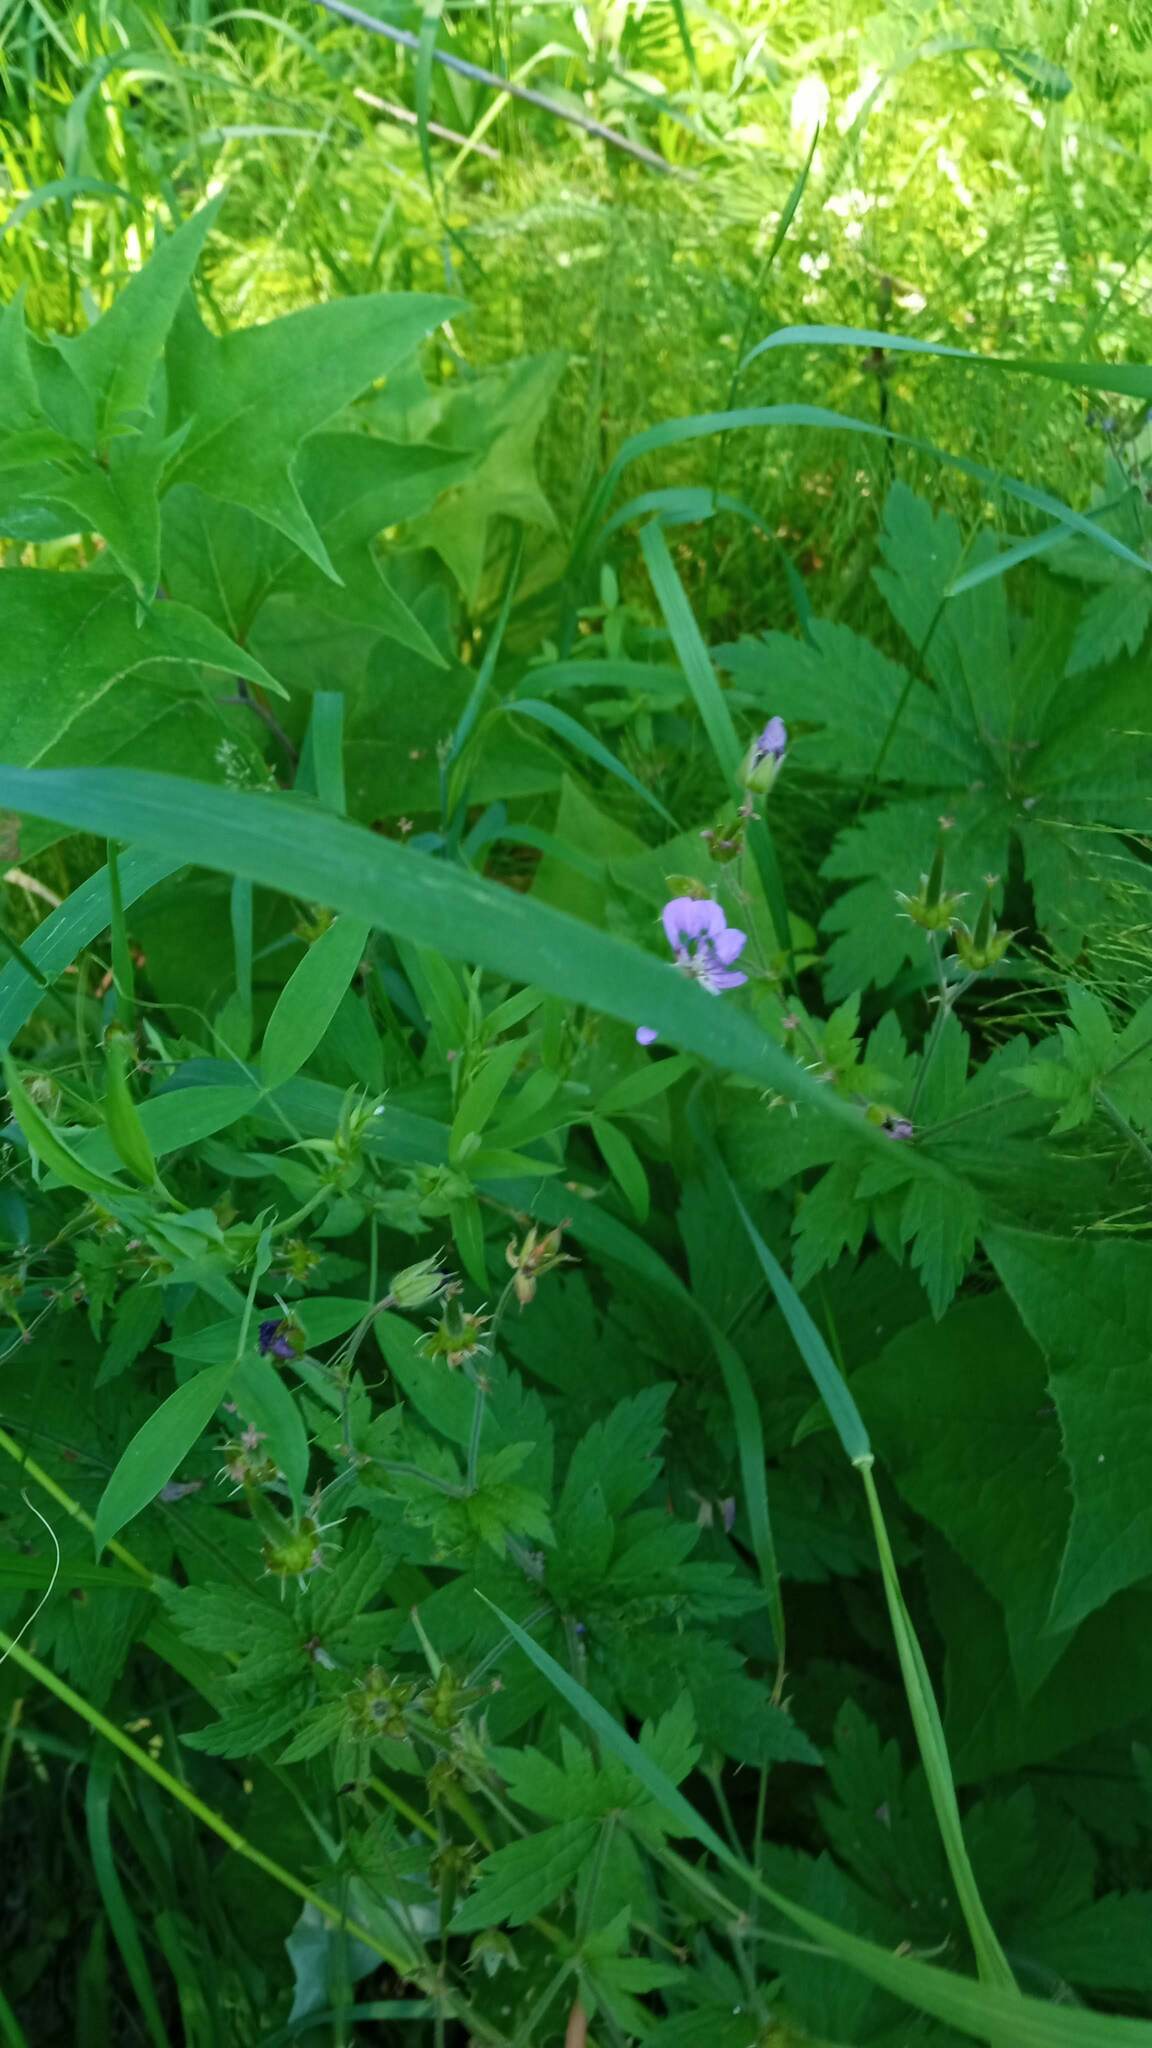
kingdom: Plantae
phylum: Tracheophyta
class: Magnoliopsida
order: Geraniales
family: Geraniaceae
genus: Geranium
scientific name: Geranium sylvaticum
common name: Wood crane's-bill
